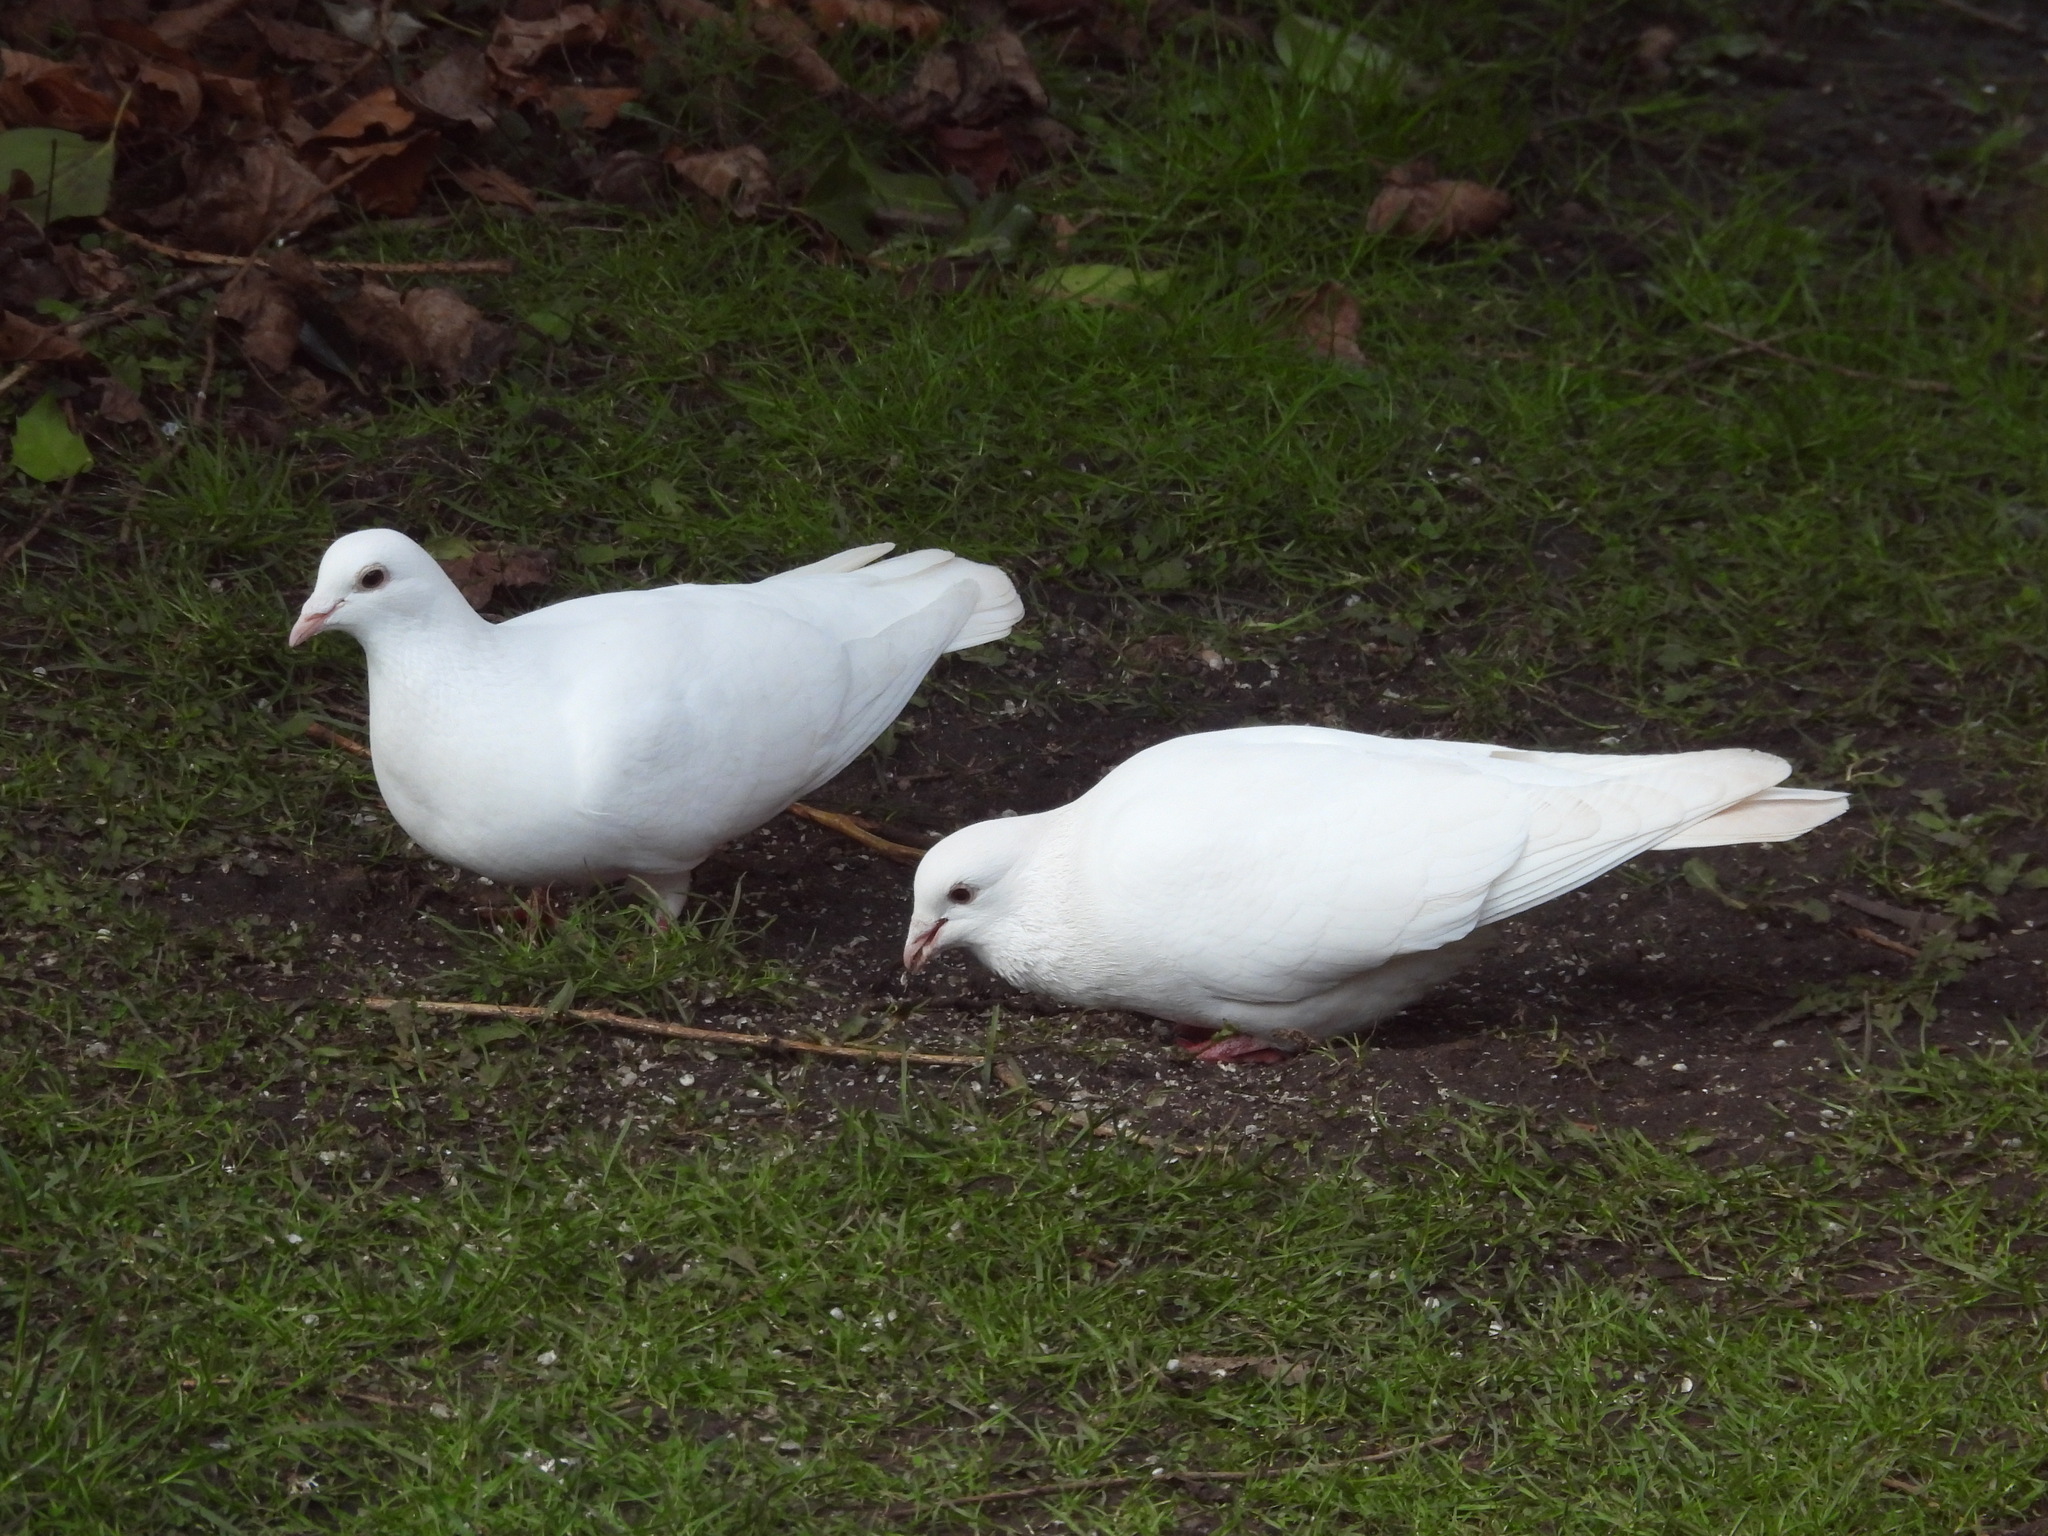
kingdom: Animalia
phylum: Chordata
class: Aves
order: Columbiformes
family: Columbidae
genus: Columba
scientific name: Columba livia
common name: Rock pigeon
